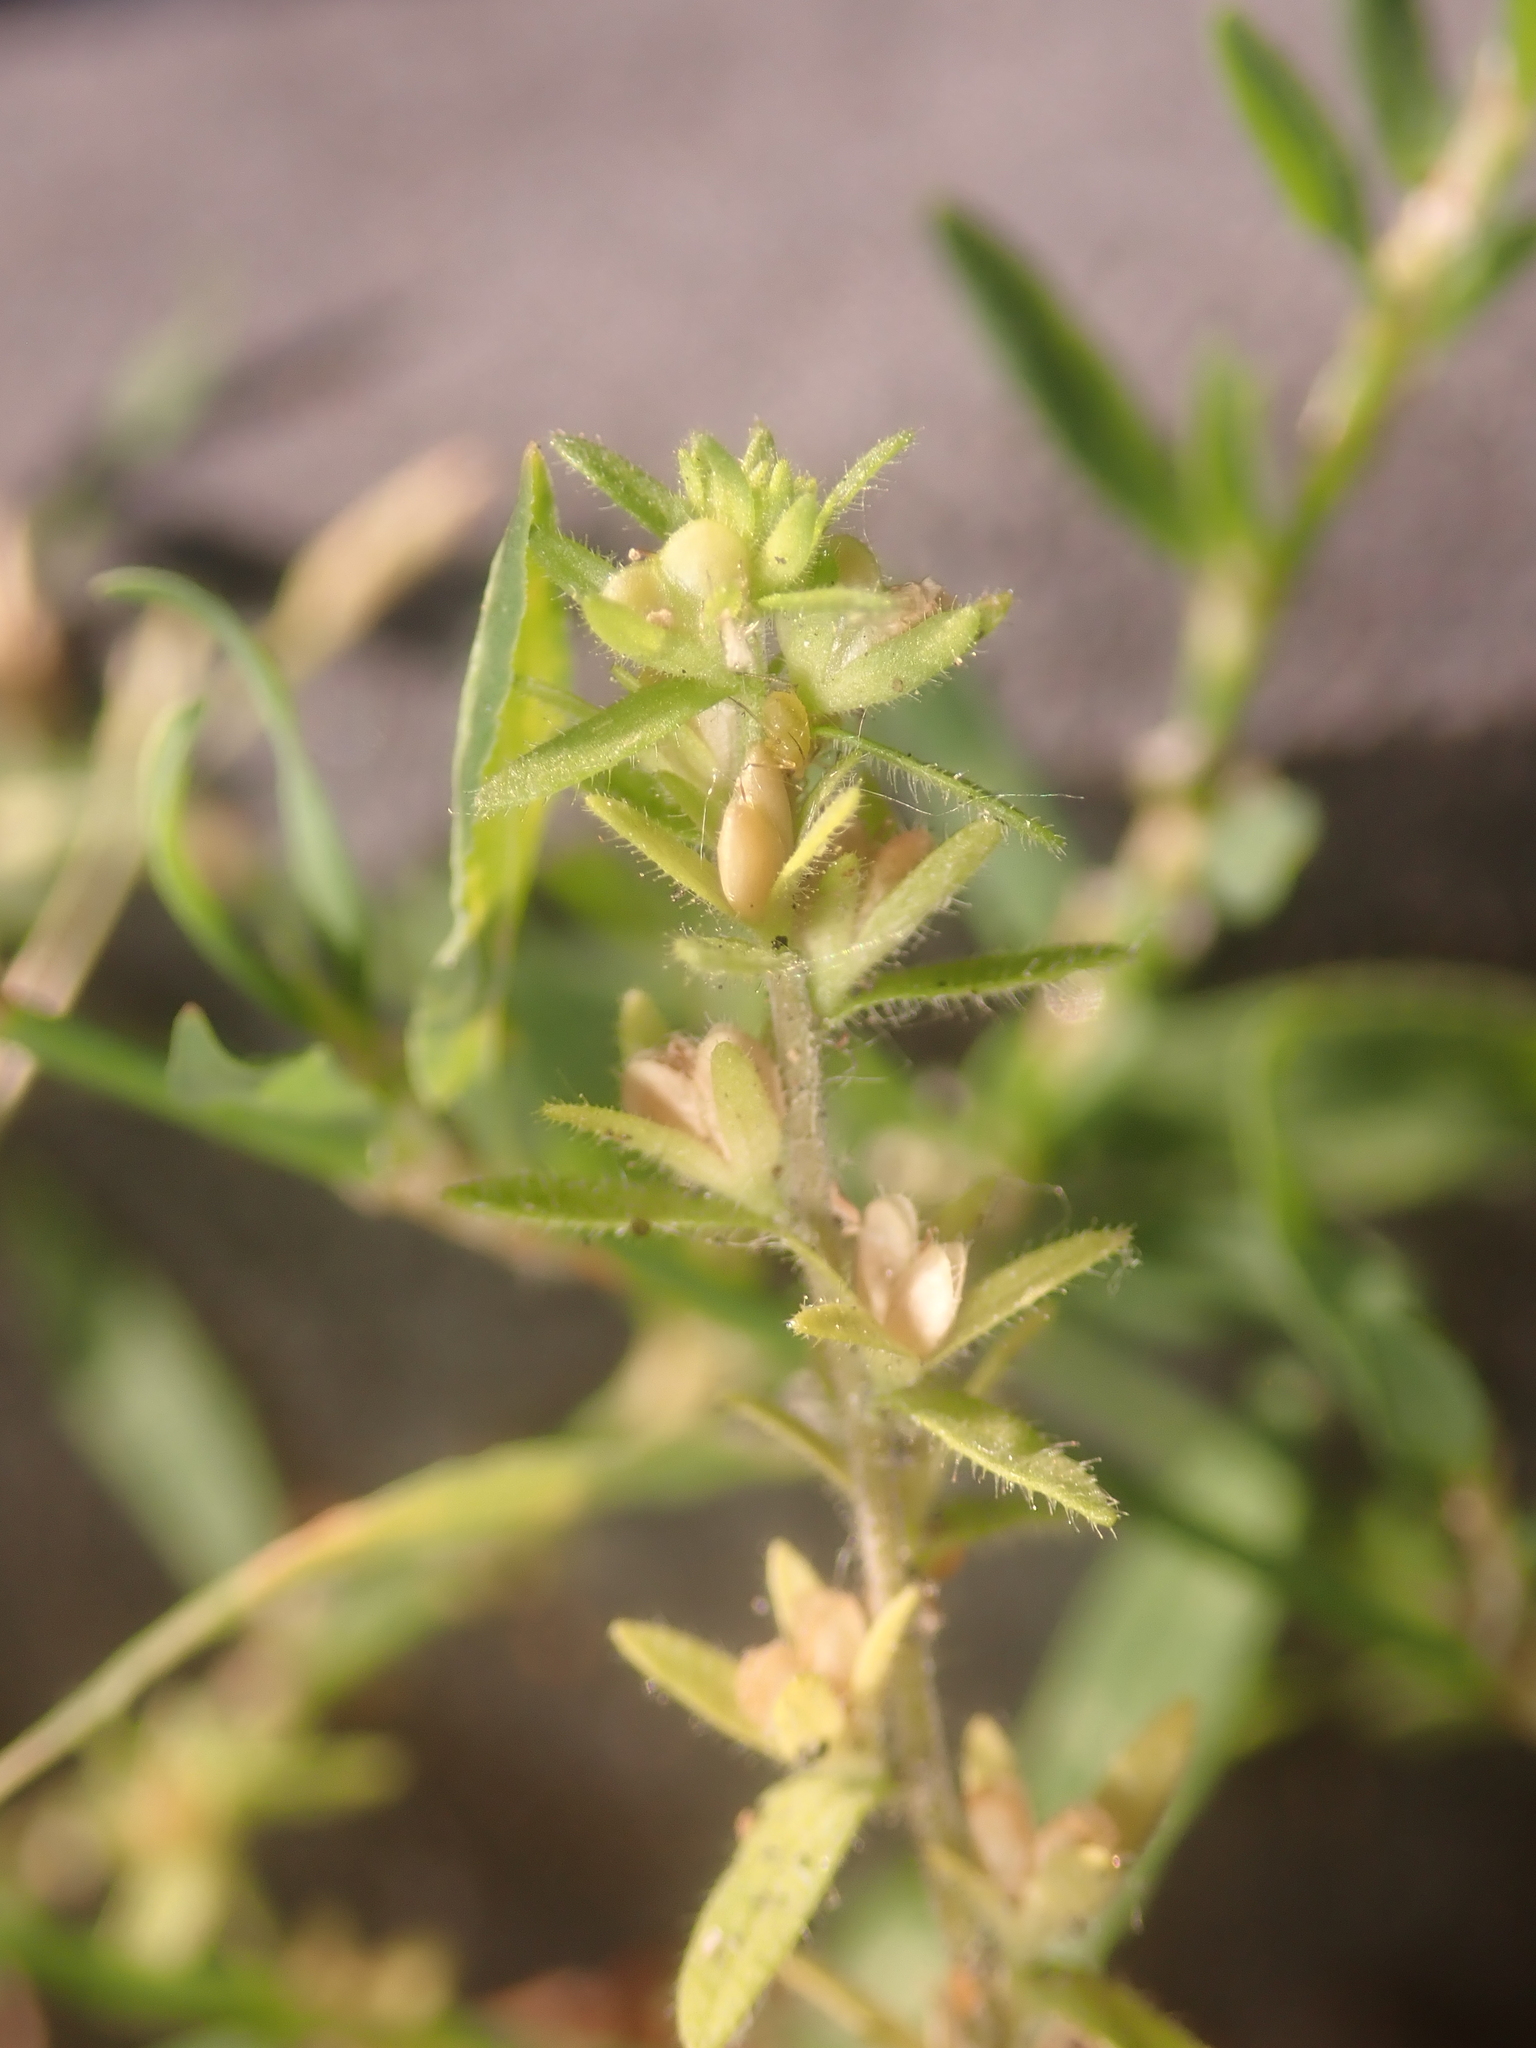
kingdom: Plantae
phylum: Tracheophyta
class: Magnoliopsida
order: Lamiales
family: Plantaginaceae
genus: Veronica
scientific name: Veronica arvensis
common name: Corn speedwell
